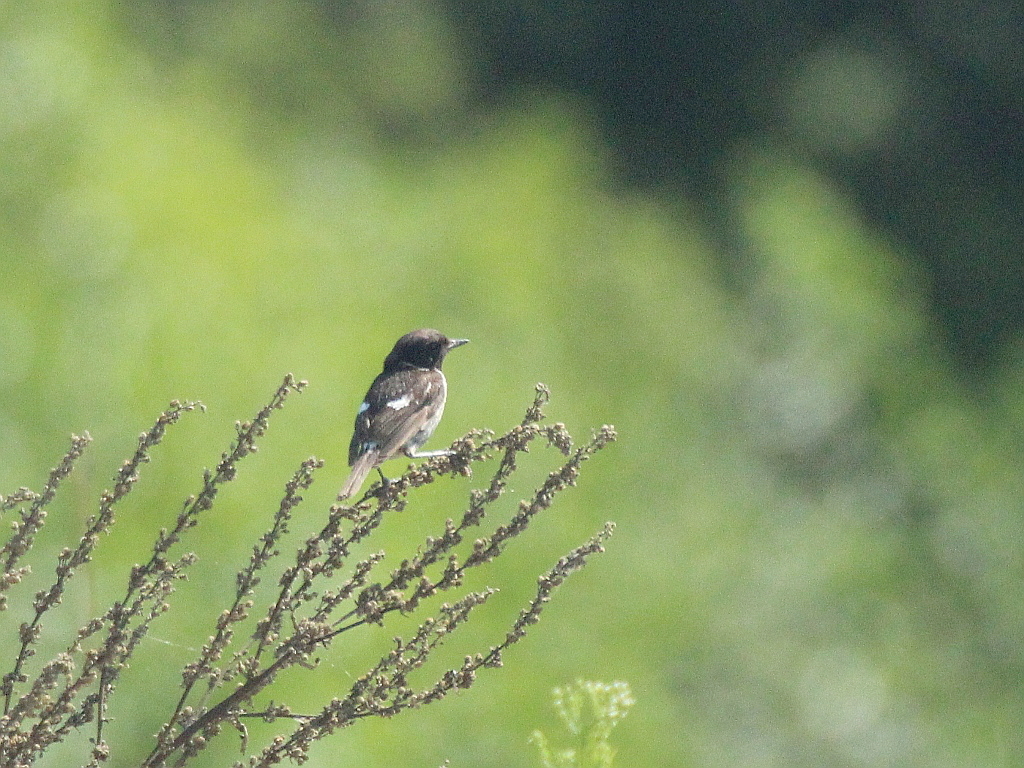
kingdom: Animalia
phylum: Chordata
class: Aves
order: Passeriformes
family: Muscicapidae
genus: Saxicola
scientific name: Saxicola rubicola
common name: European stonechat
